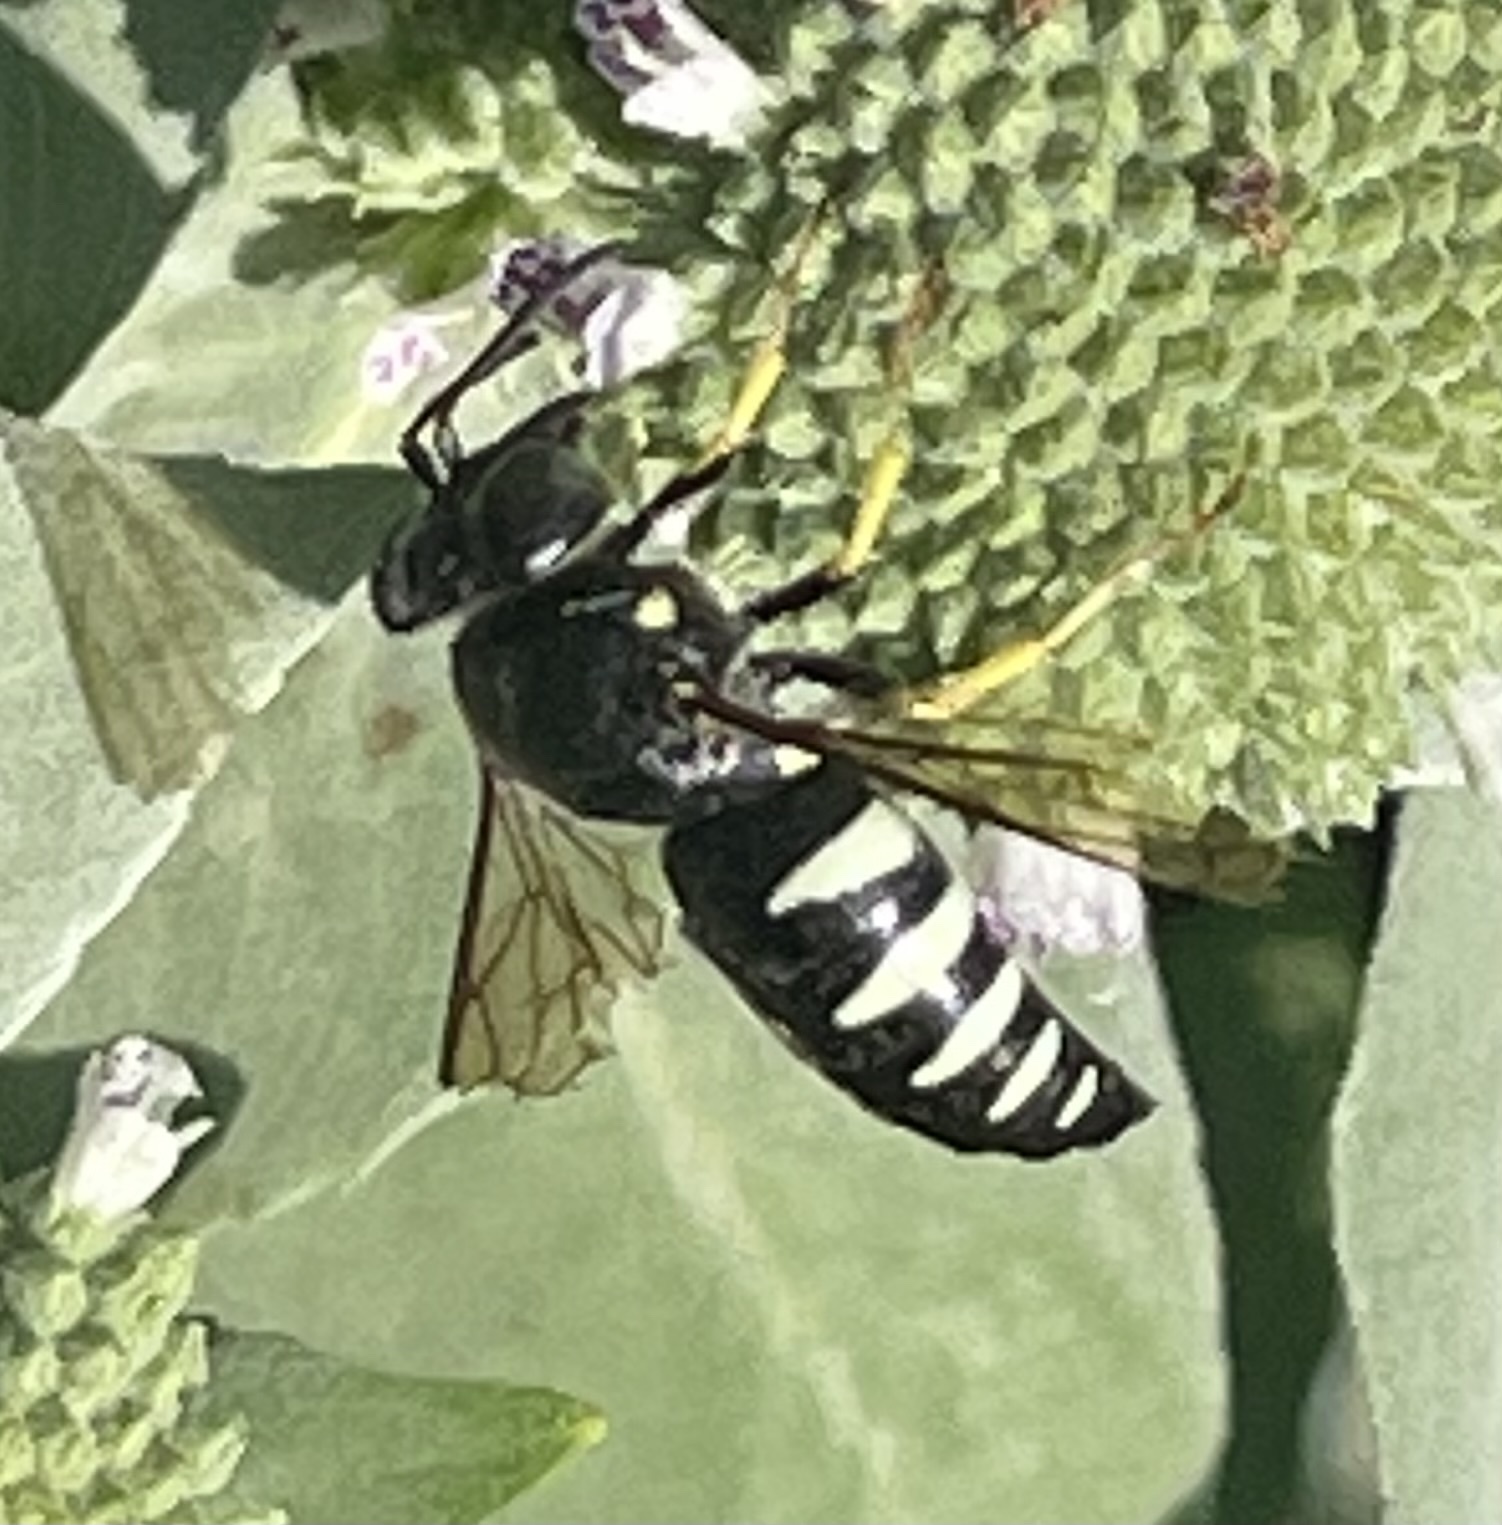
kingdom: Animalia
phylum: Arthropoda
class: Insecta
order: Hymenoptera
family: Crabronidae
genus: Bicyrtes
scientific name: Bicyrtes quadrifasciatus
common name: Four-banded stink bug hunter wasp
